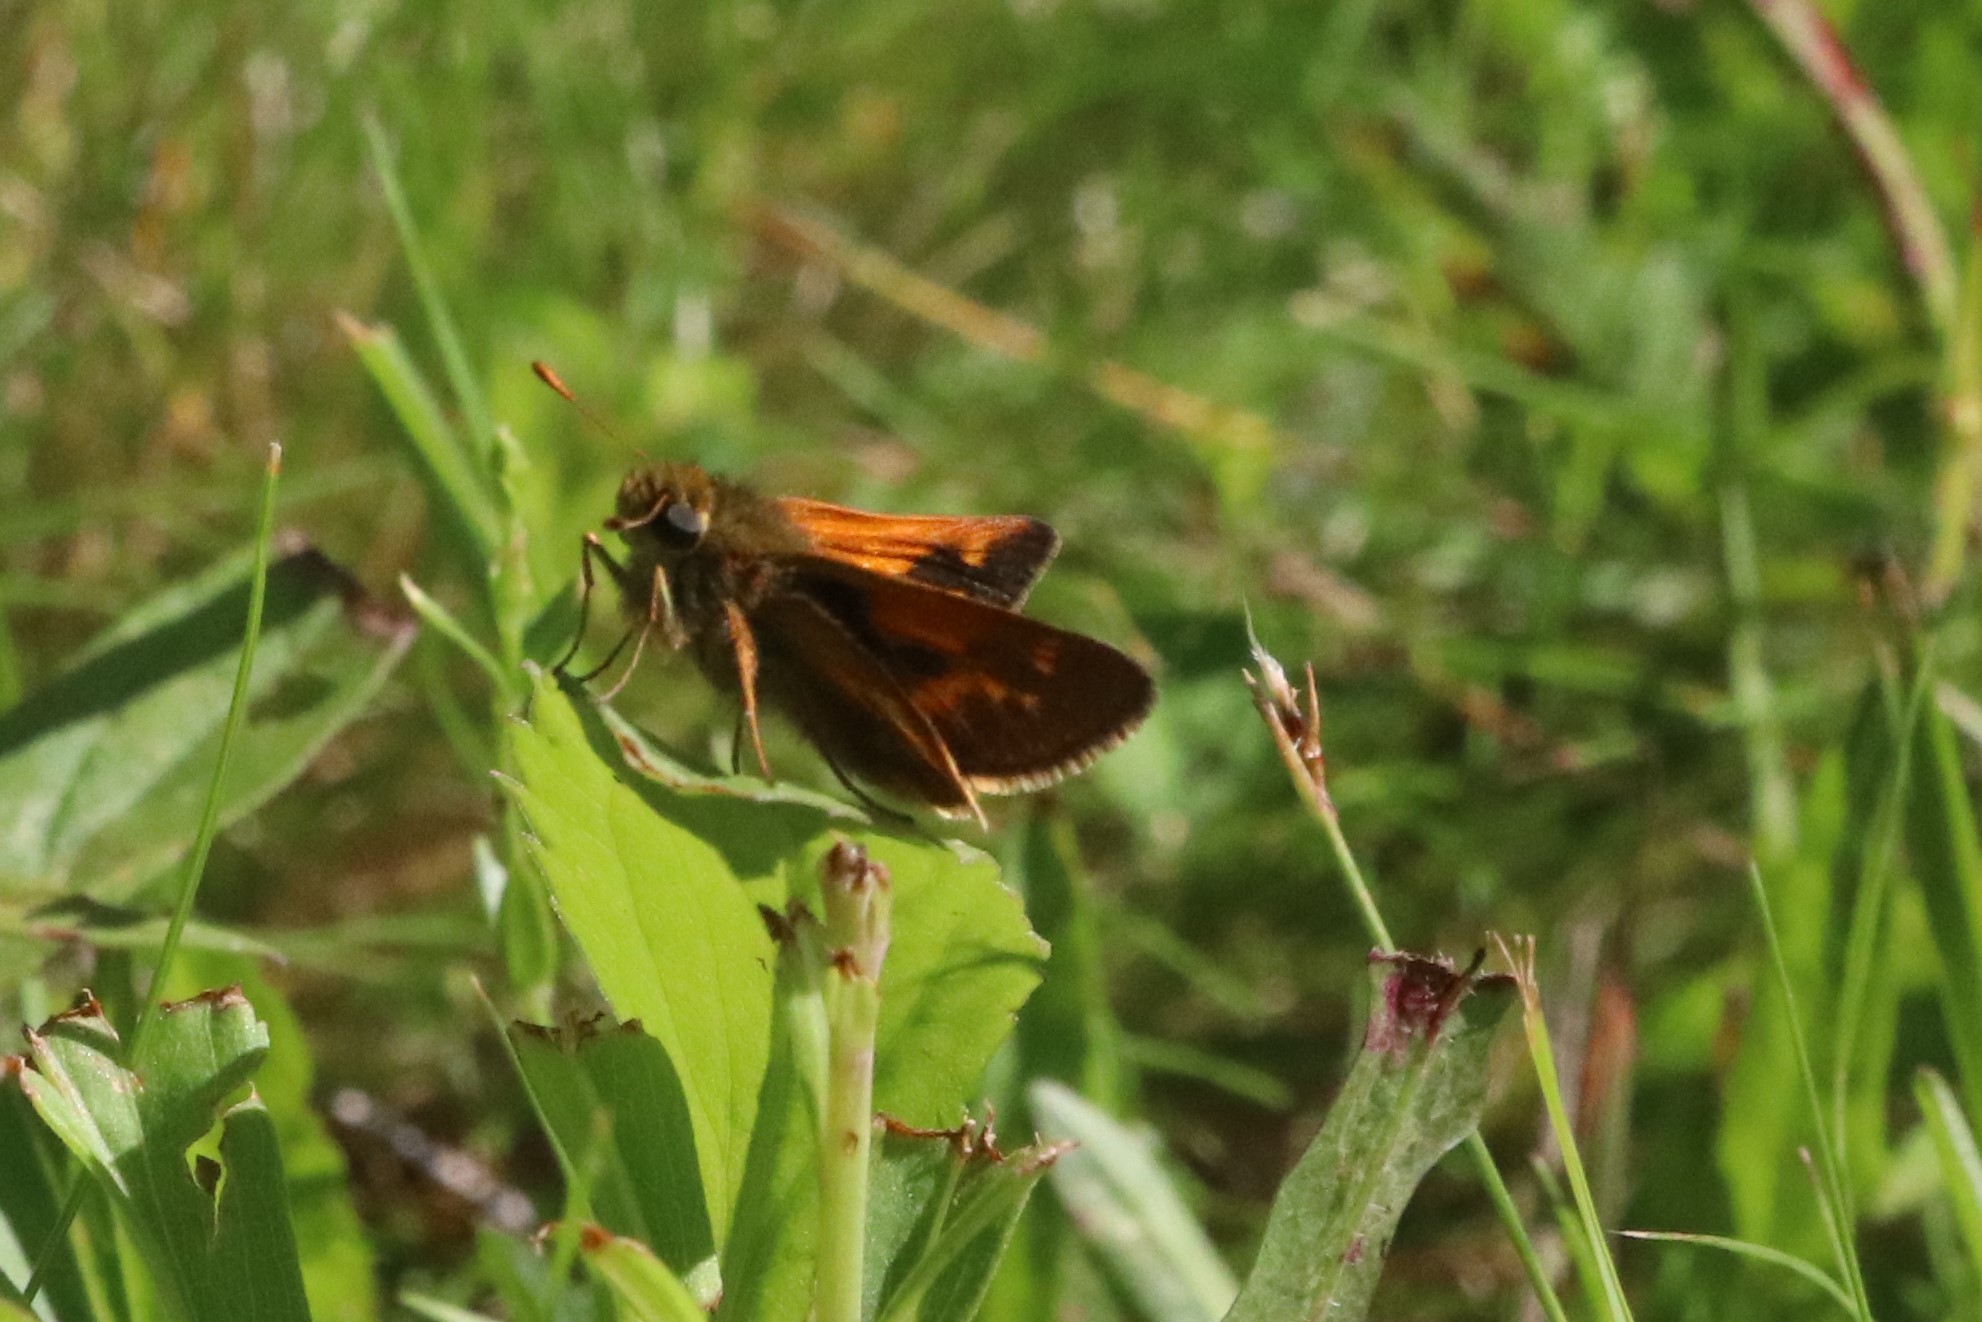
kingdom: Animalia
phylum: Arthropoda
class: Insecta
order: Lepidoptera
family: Hesperiidae
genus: Polites
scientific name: Polites mystic
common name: Long dash
